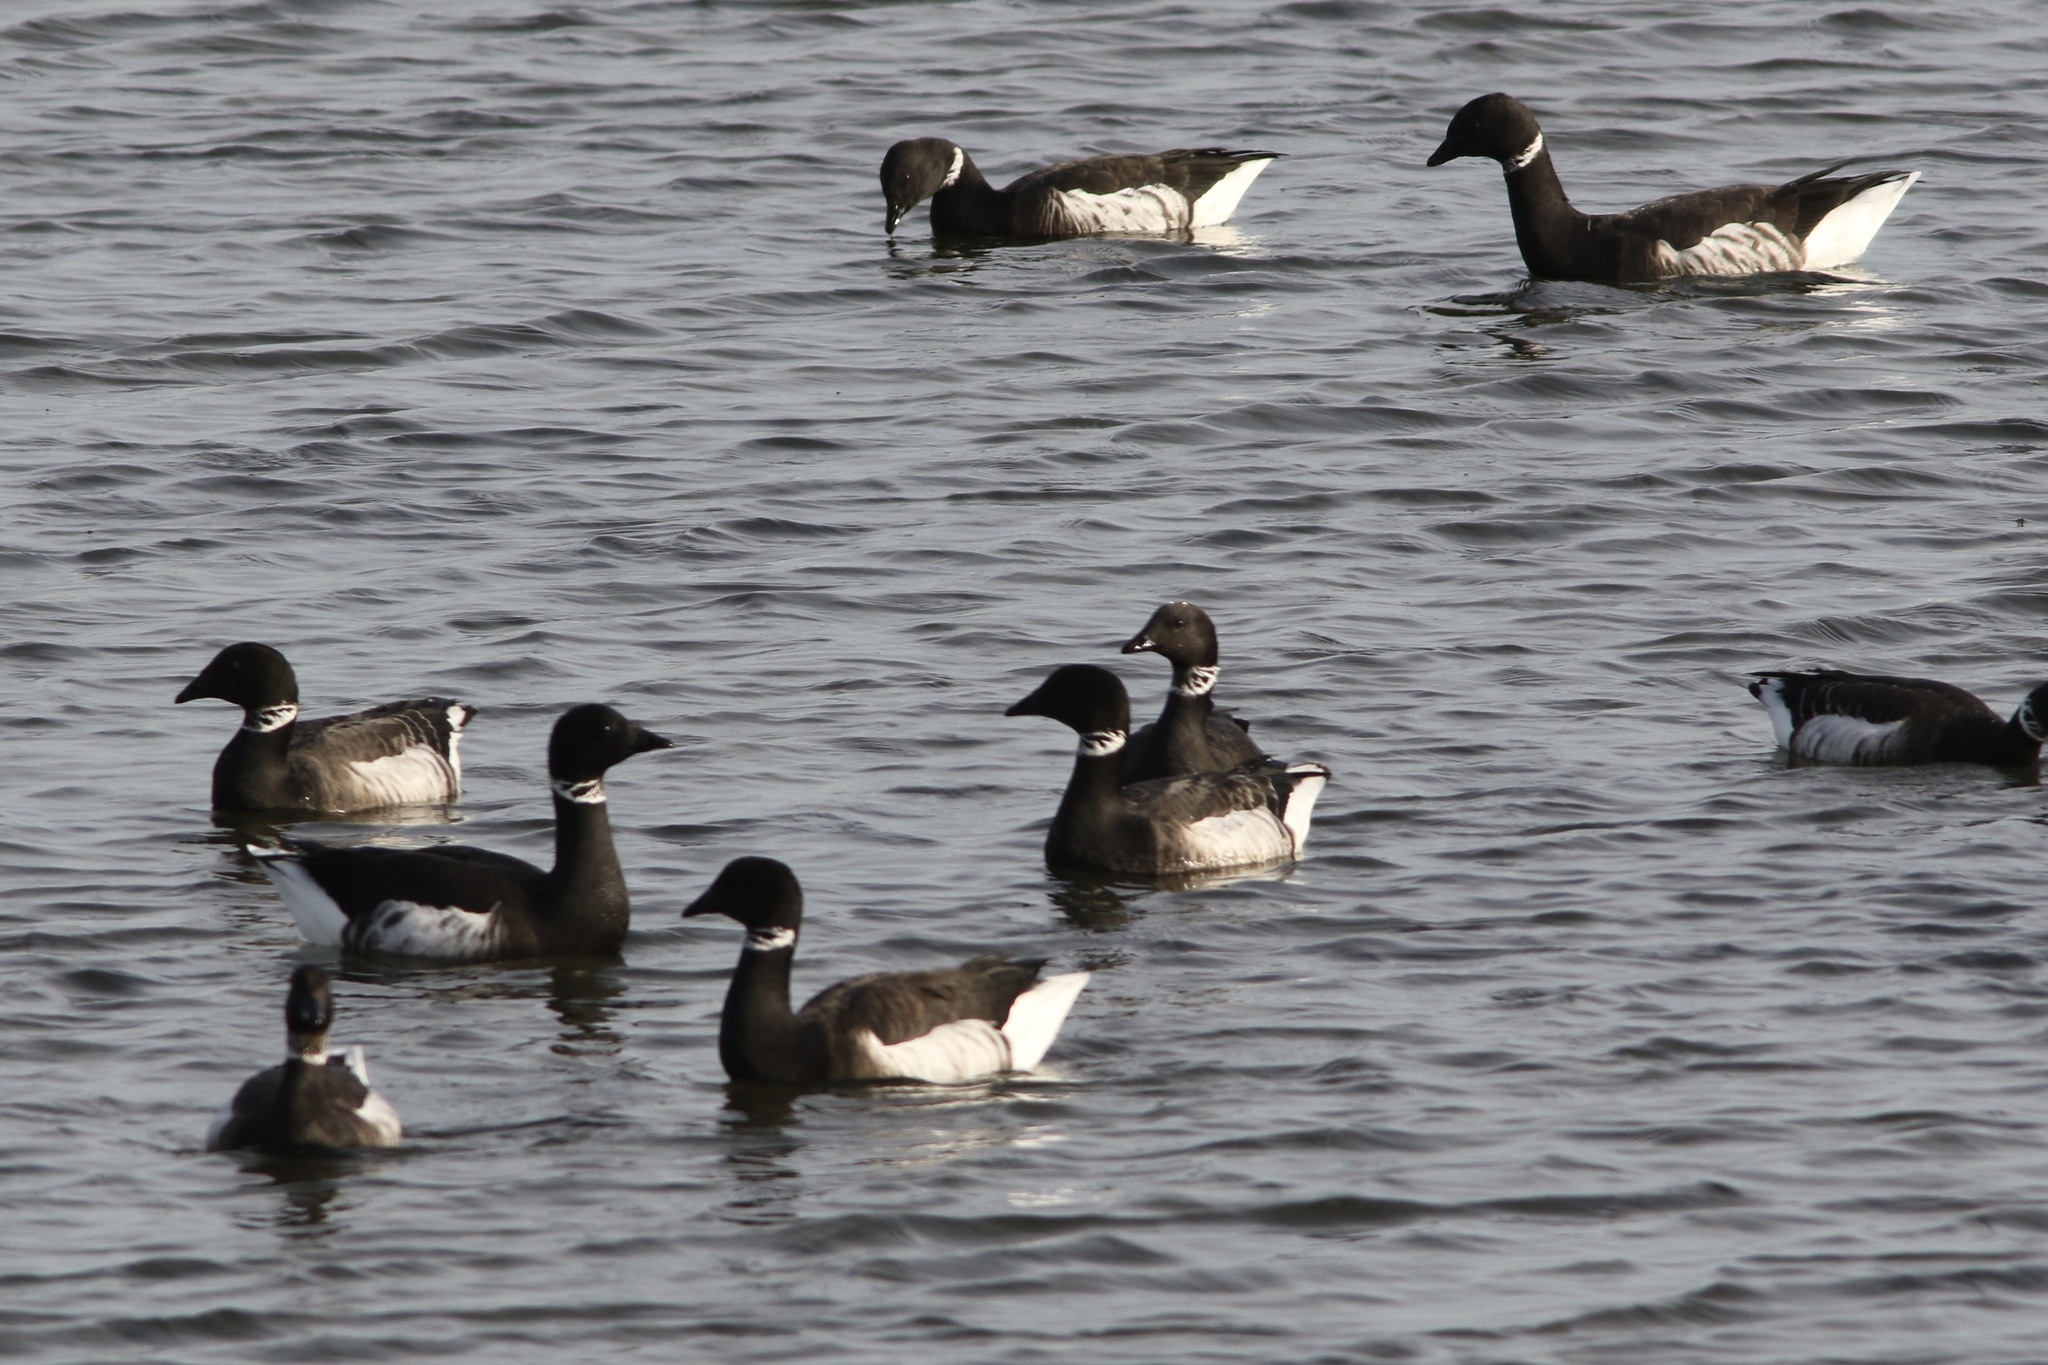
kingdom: Animalia
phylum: Chordata
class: Aves
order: Anseriformes
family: Anatidae
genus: Branta
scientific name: Branta bernicla
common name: Brant goose
